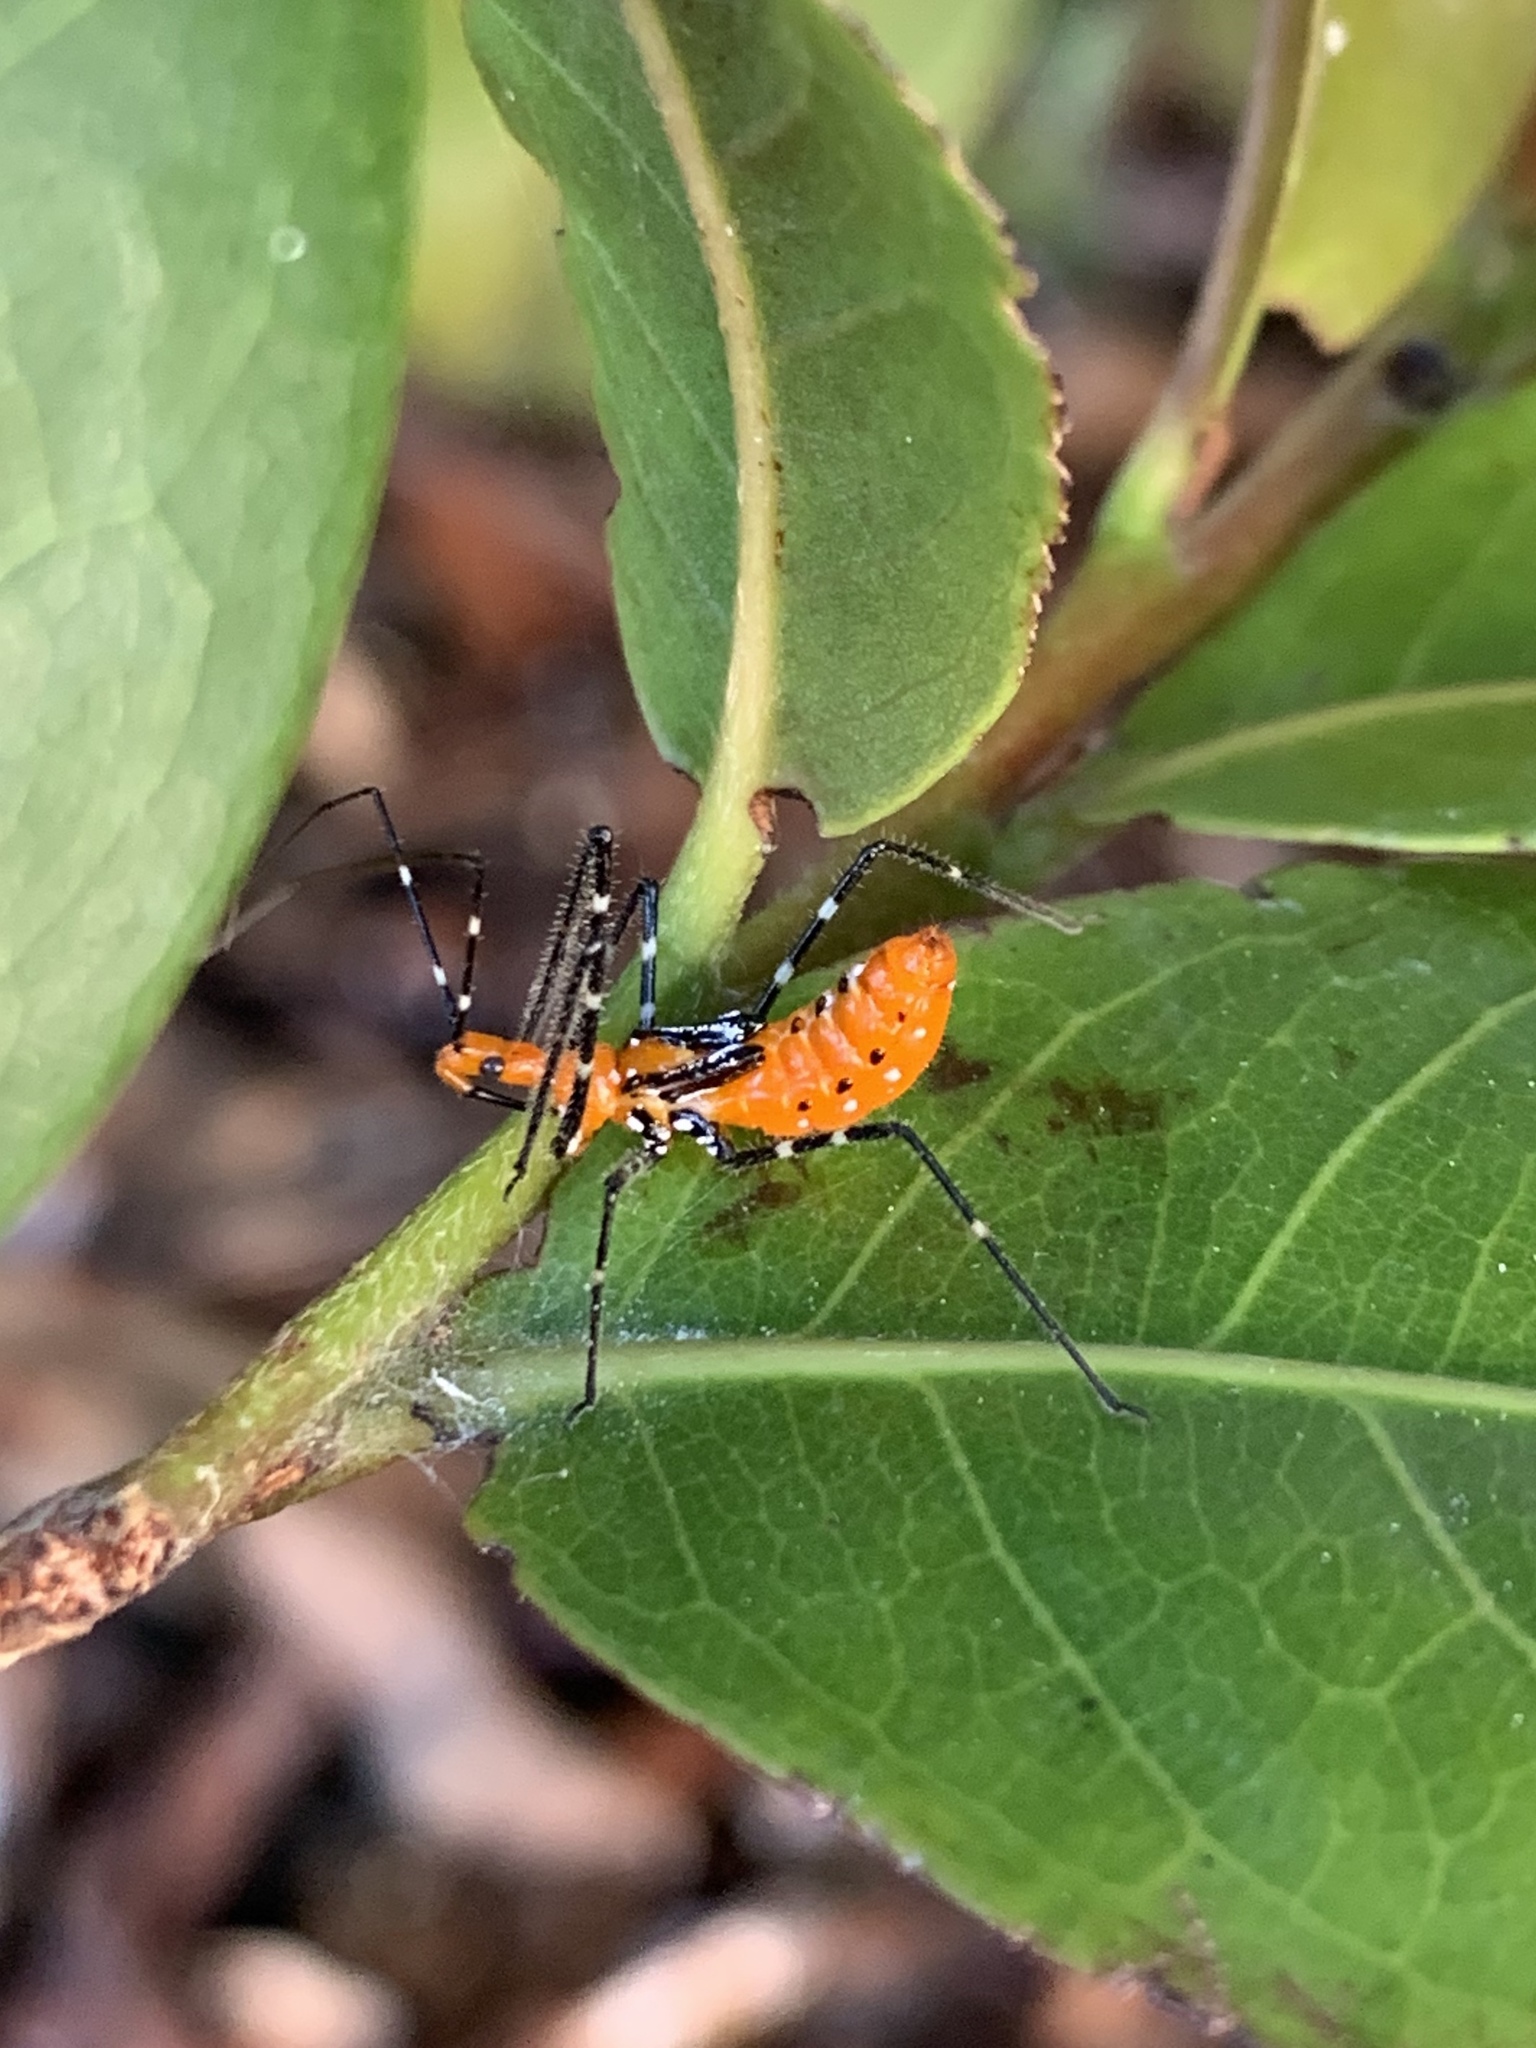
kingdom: Animalia
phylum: Arthropoda
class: Insecta
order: Hemiptera
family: Reduviidae
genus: Zelus
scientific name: Zelus longipes
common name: Milkweed assassin bug
